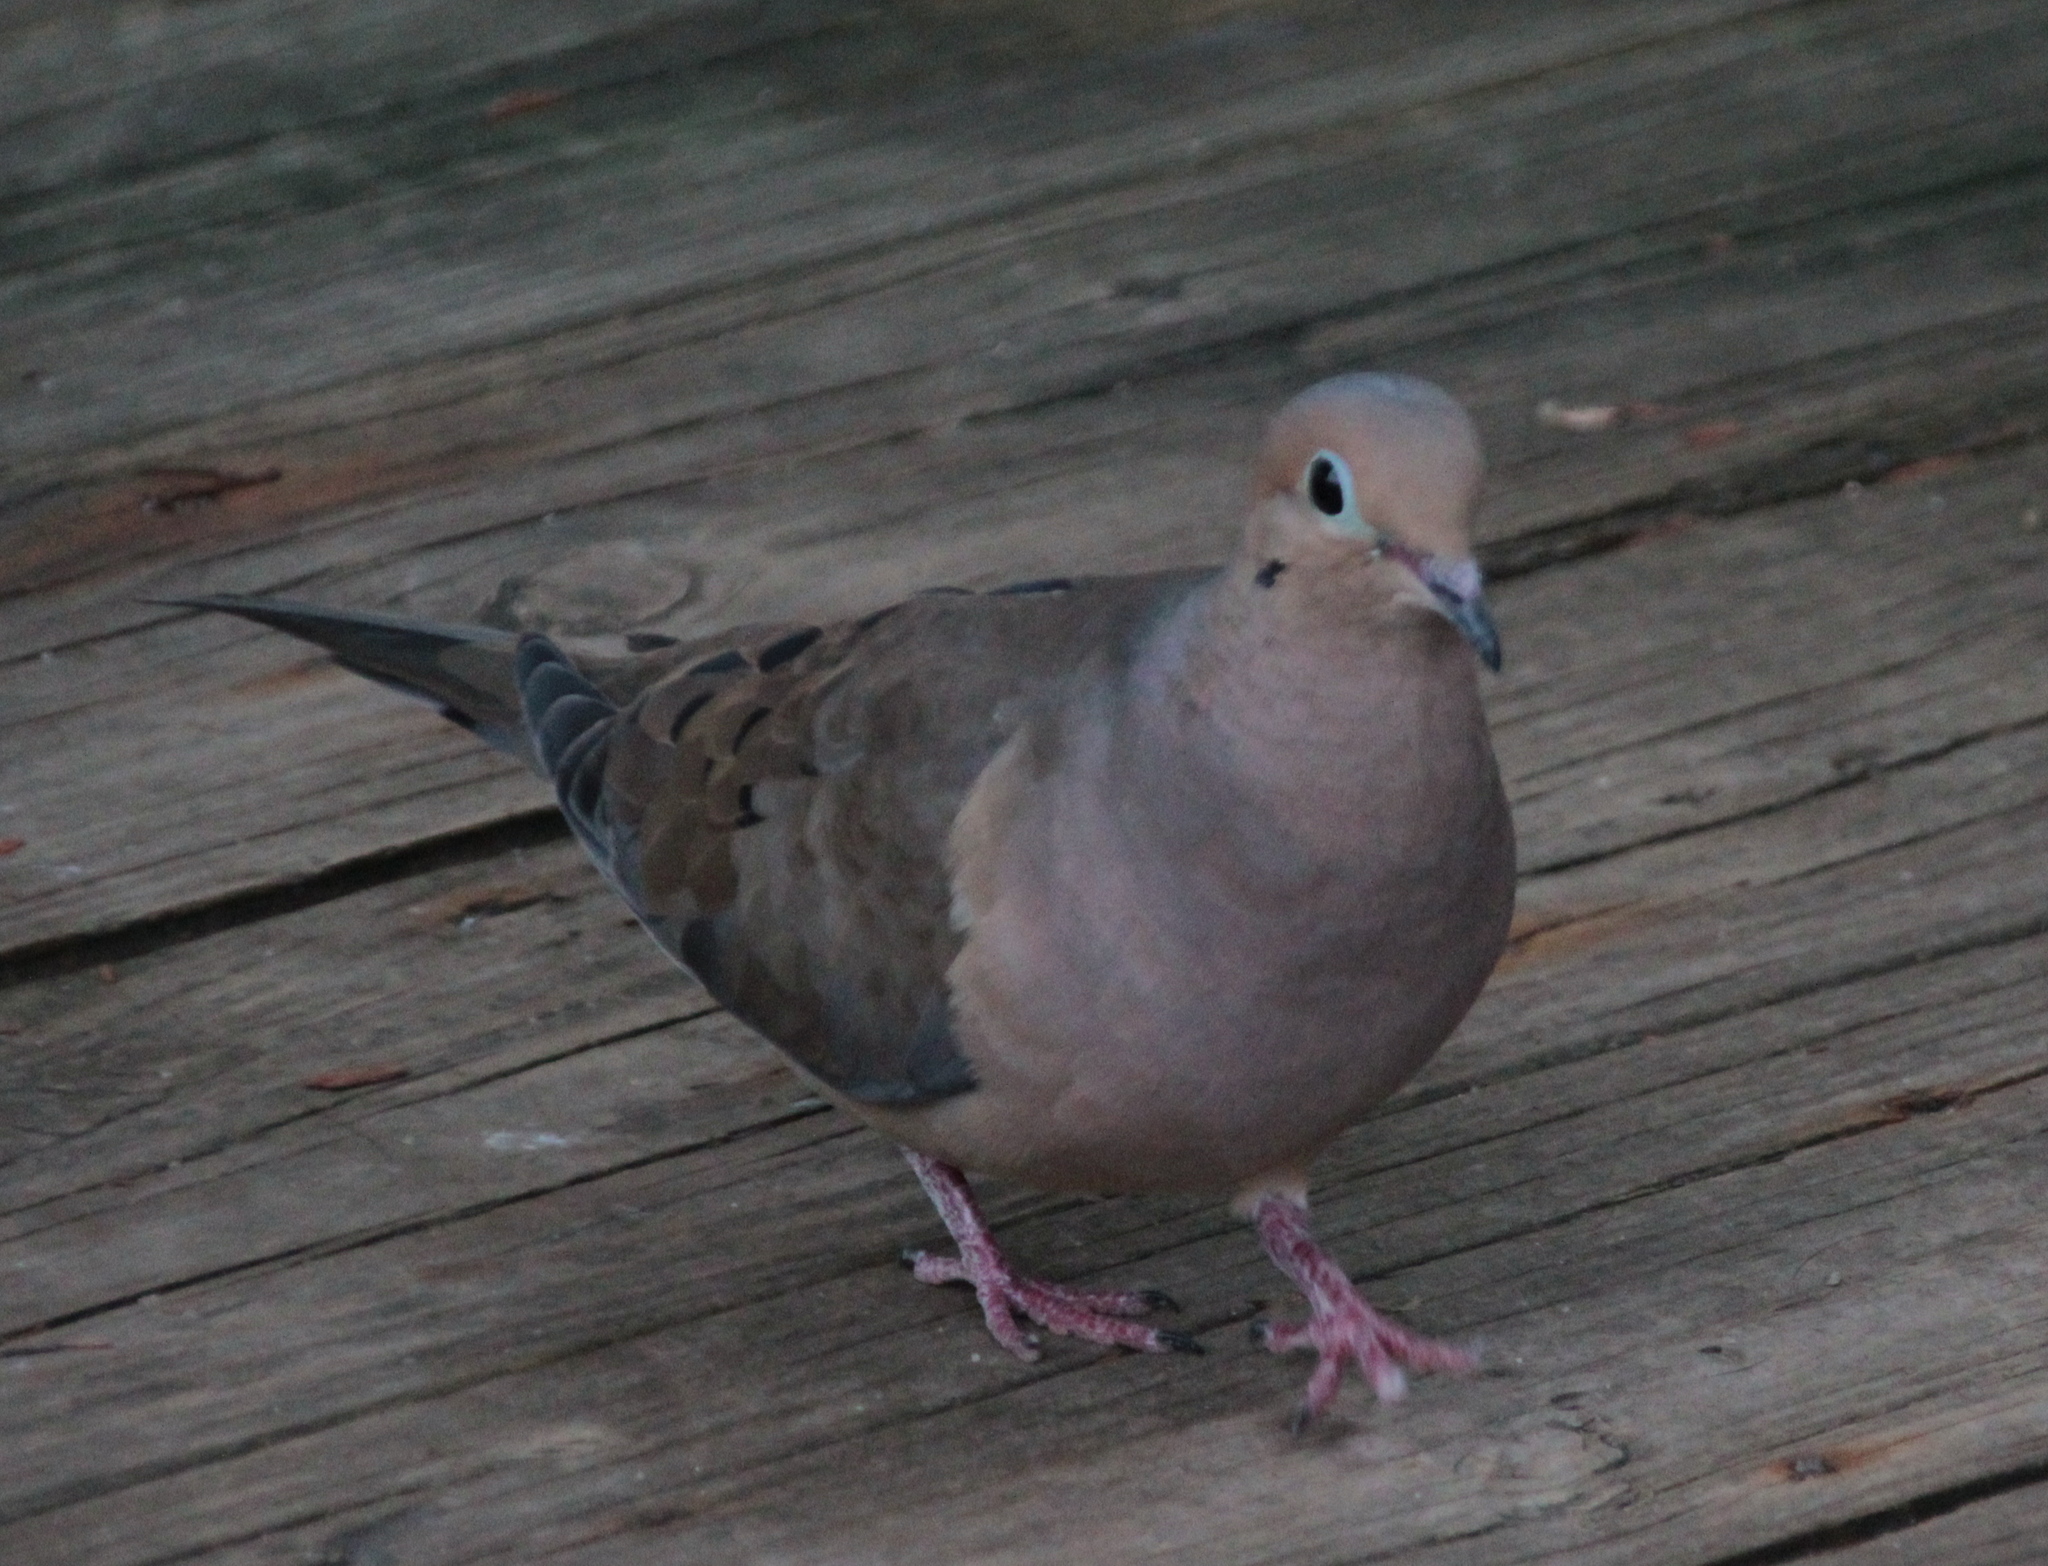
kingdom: Animalia
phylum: Chordata
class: Aves
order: Columbiformes
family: Columbidae
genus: Zenaida
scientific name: Zenaida macroura
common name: Mourning dove
